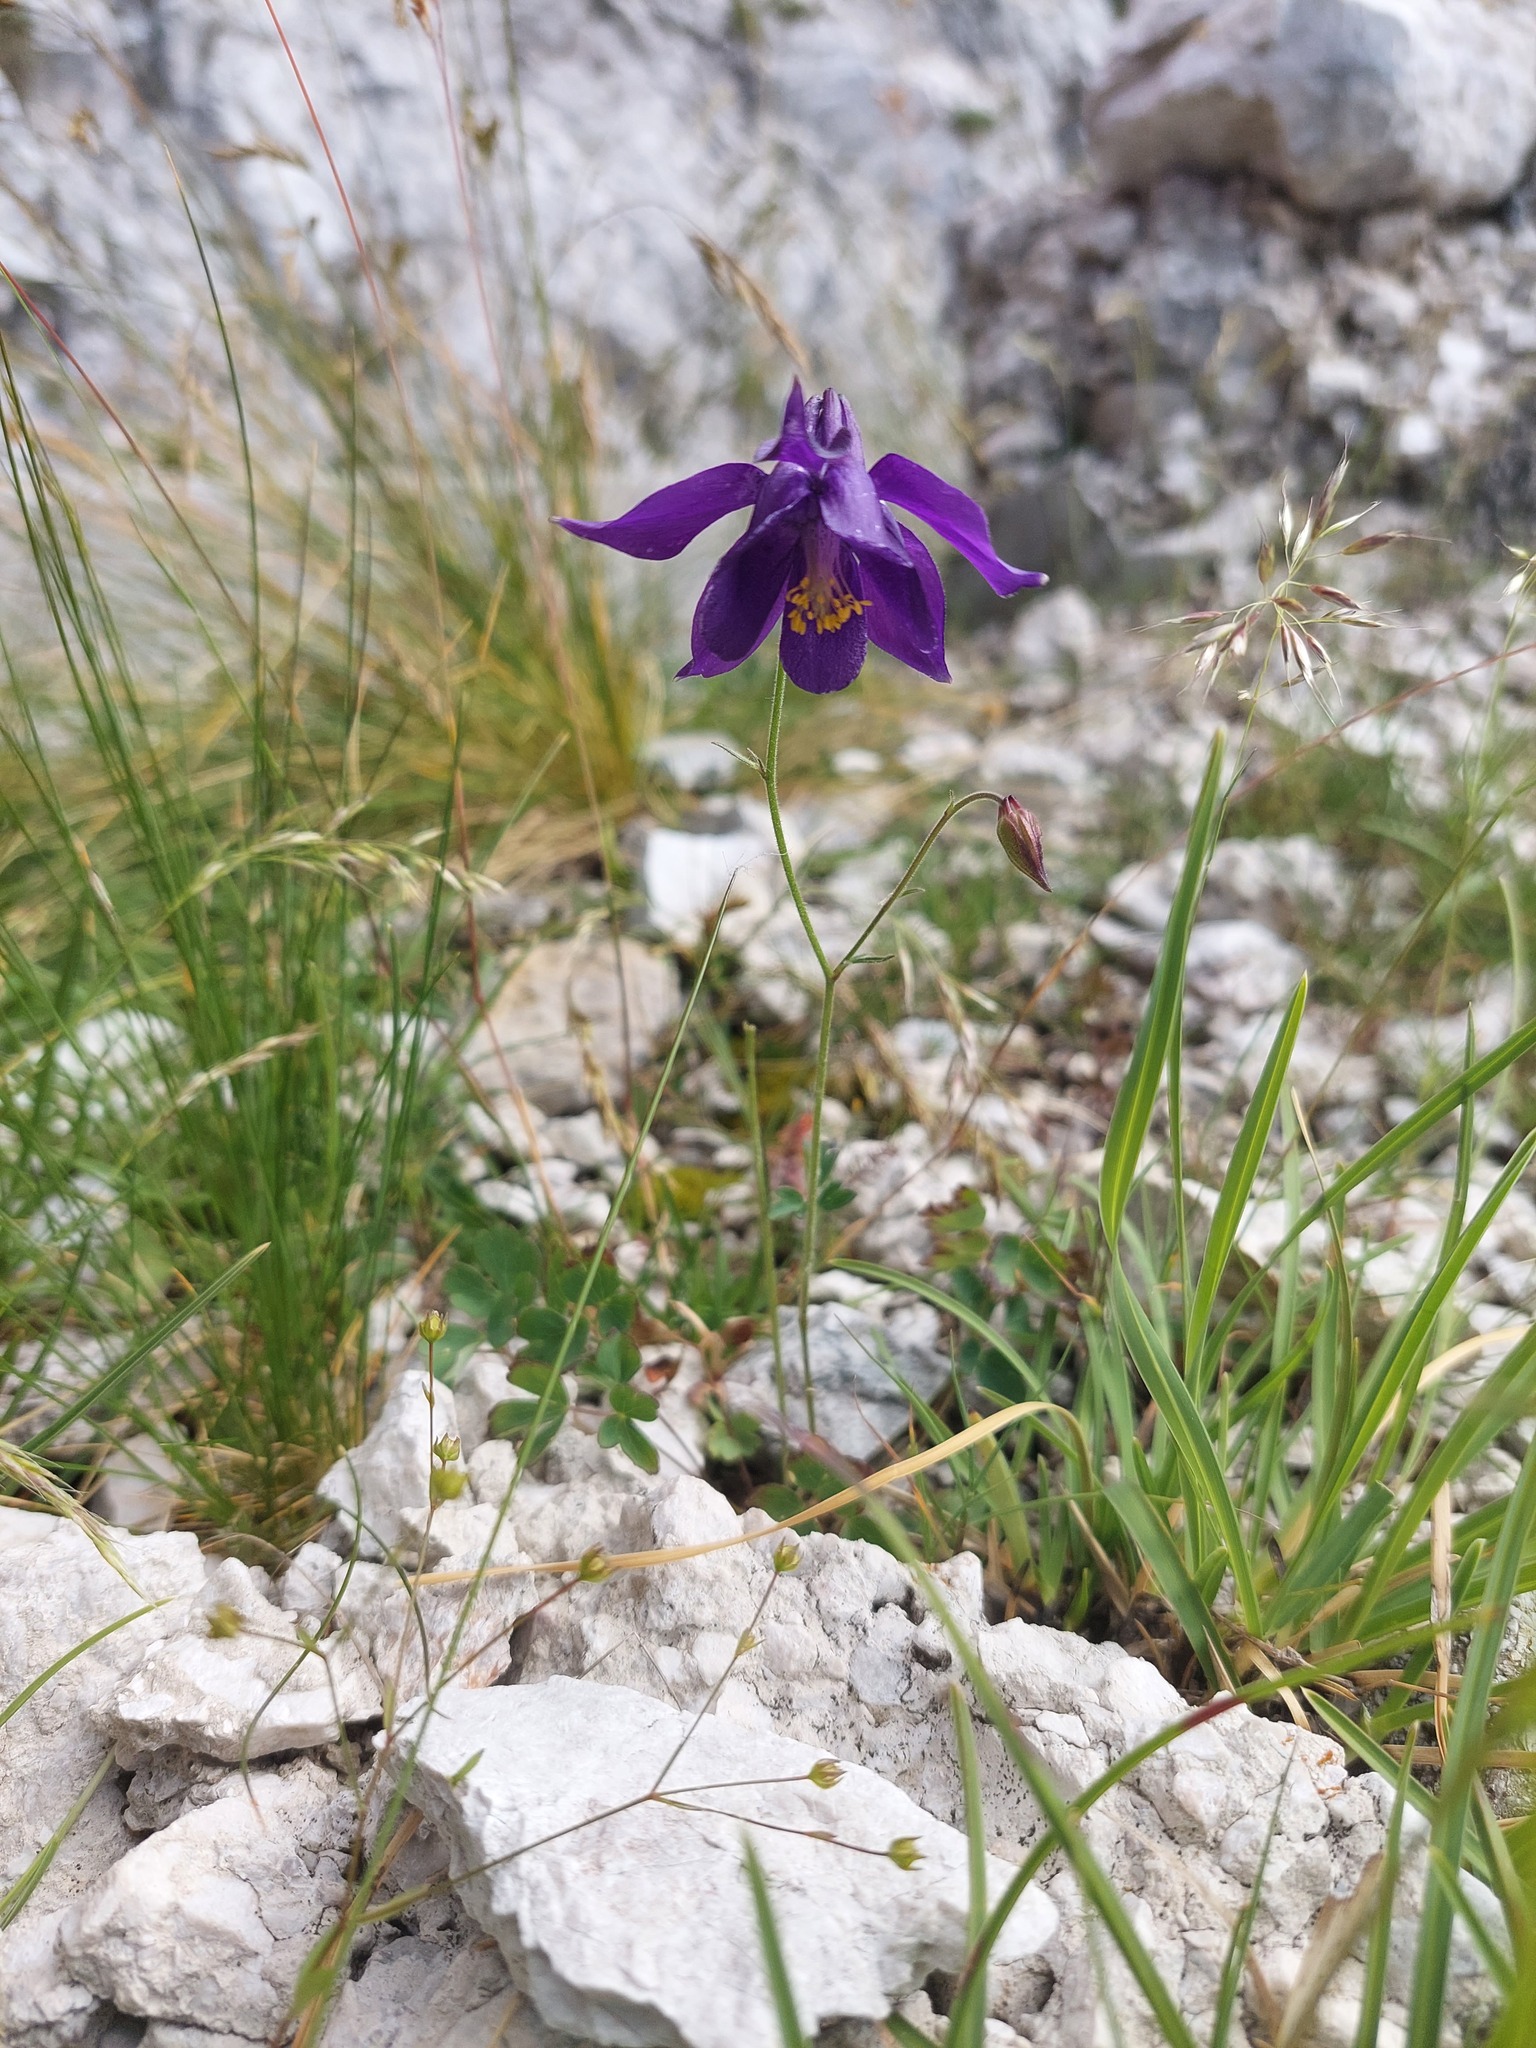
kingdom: Plantae
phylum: Tracheophyta
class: Magnoliopsida
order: Ranunculales
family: Ranunculaceae
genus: Aquilegia
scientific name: Aquilegia einseleana
